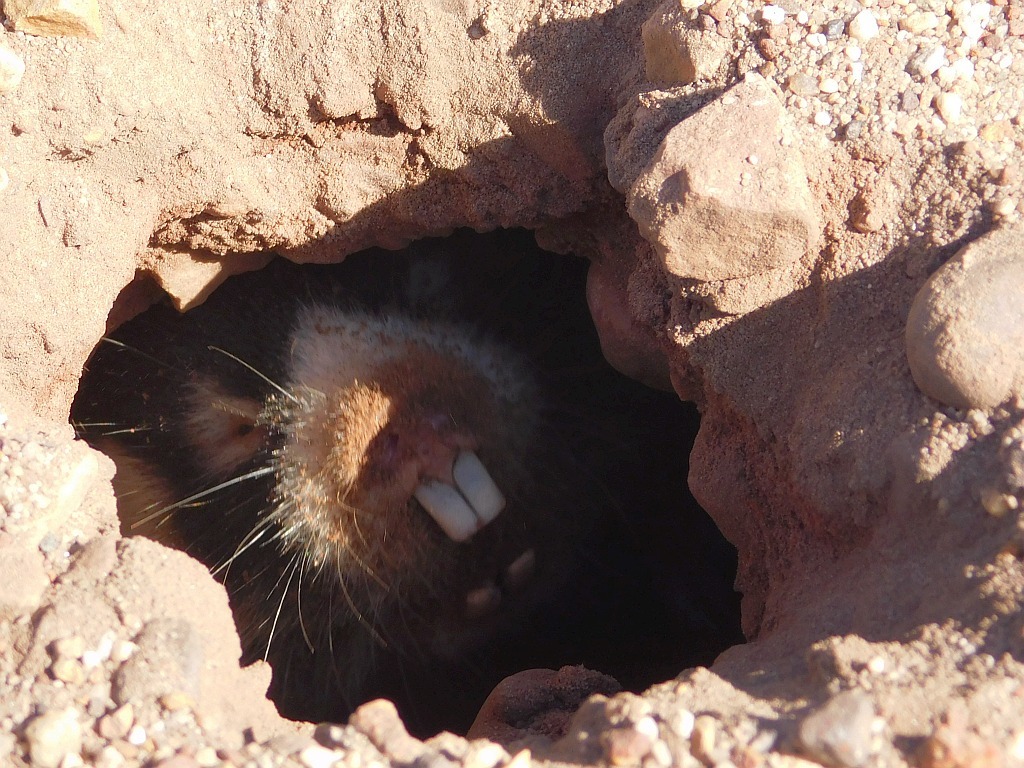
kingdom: Animalia
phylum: Chordata
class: Mammalia
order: Rodentia
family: Bathyergidae
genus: Georychus
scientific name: Georychus capensis
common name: Cape mole-rat
